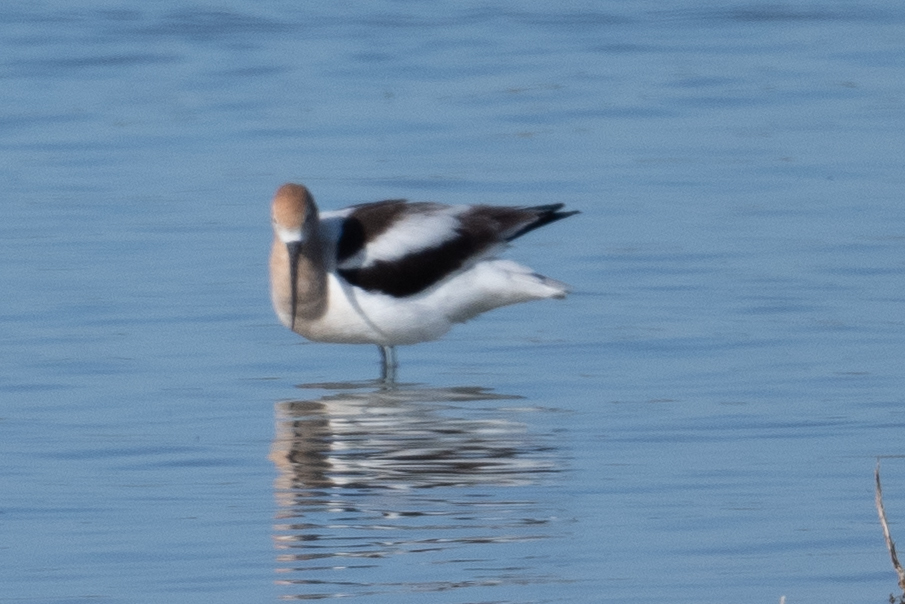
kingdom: Animalia
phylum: Chordata
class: Aves
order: Charadriiformes
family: Recurvirostridae
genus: Recurvirostra
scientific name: Recurvirostra americana
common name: American avocet
